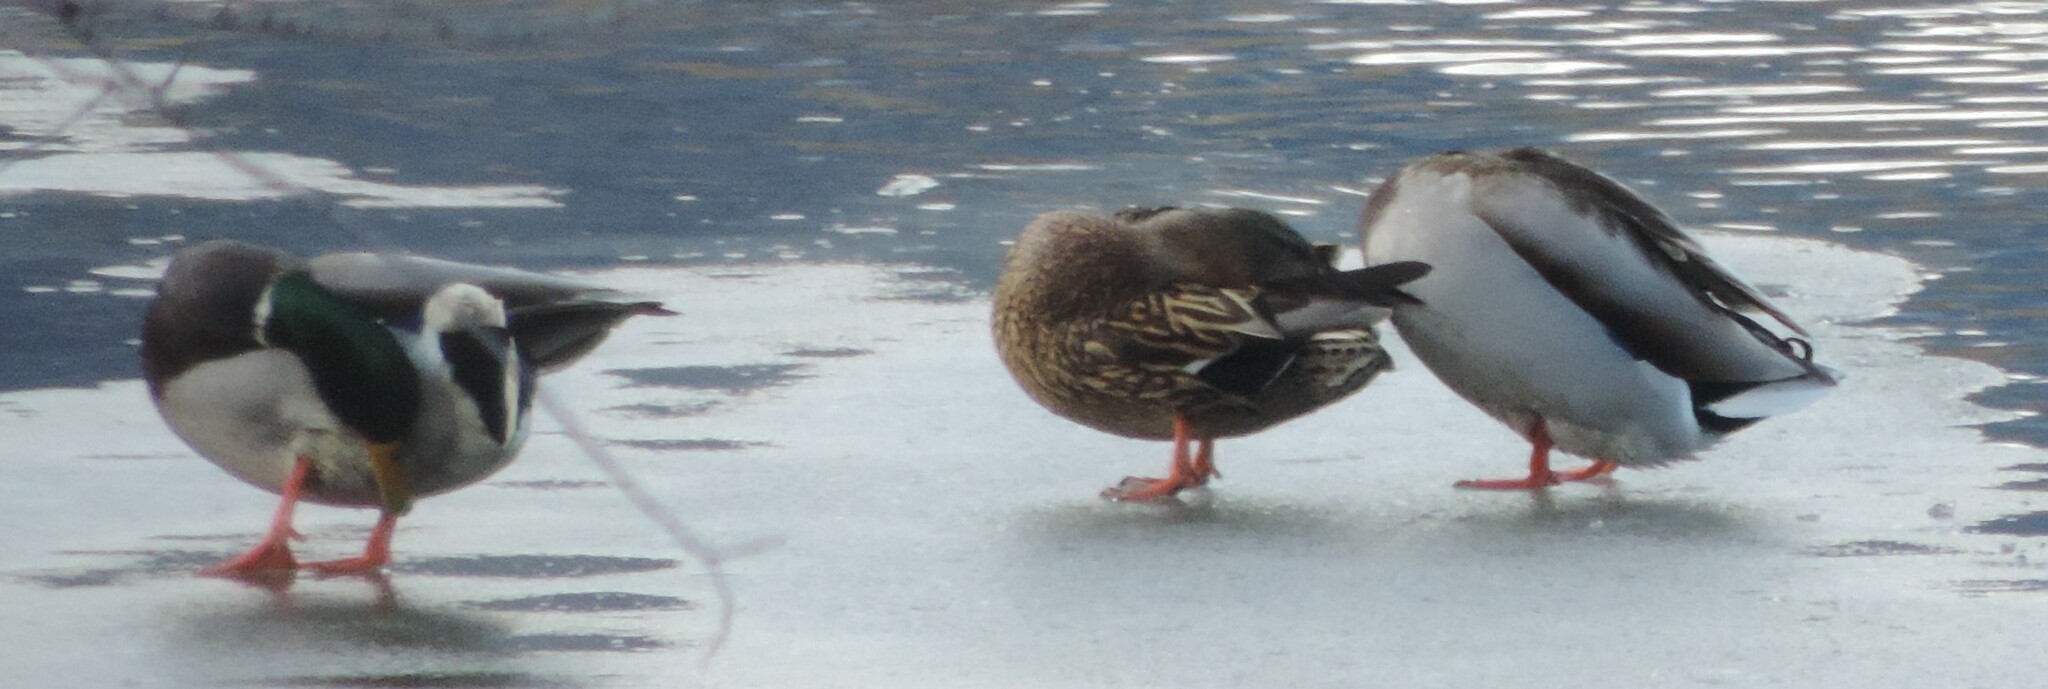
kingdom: Animalia
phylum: Chordata
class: Aves
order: Anseriformes
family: Anatidae
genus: Anas
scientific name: Anas platyrhynchos
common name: Mallard
